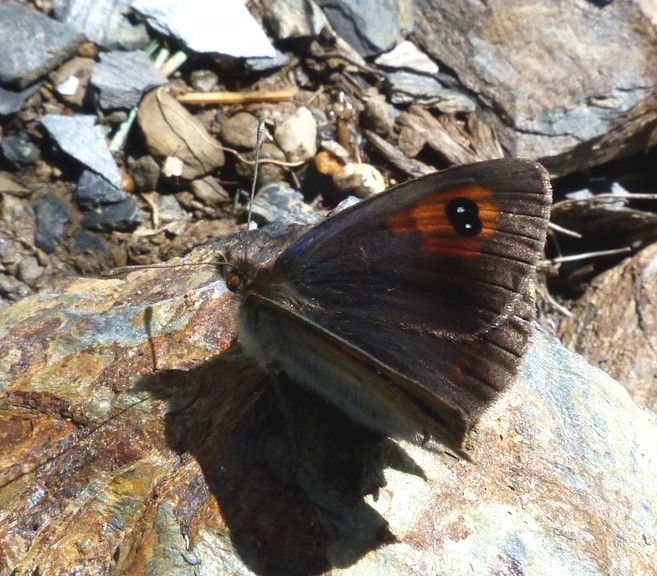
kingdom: Animalia
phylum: Arthropoda
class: Insecta
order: Lepidoptera
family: Nymphalidae
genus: Erebia
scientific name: Erebia cassioides
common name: Common brassy ringlet
